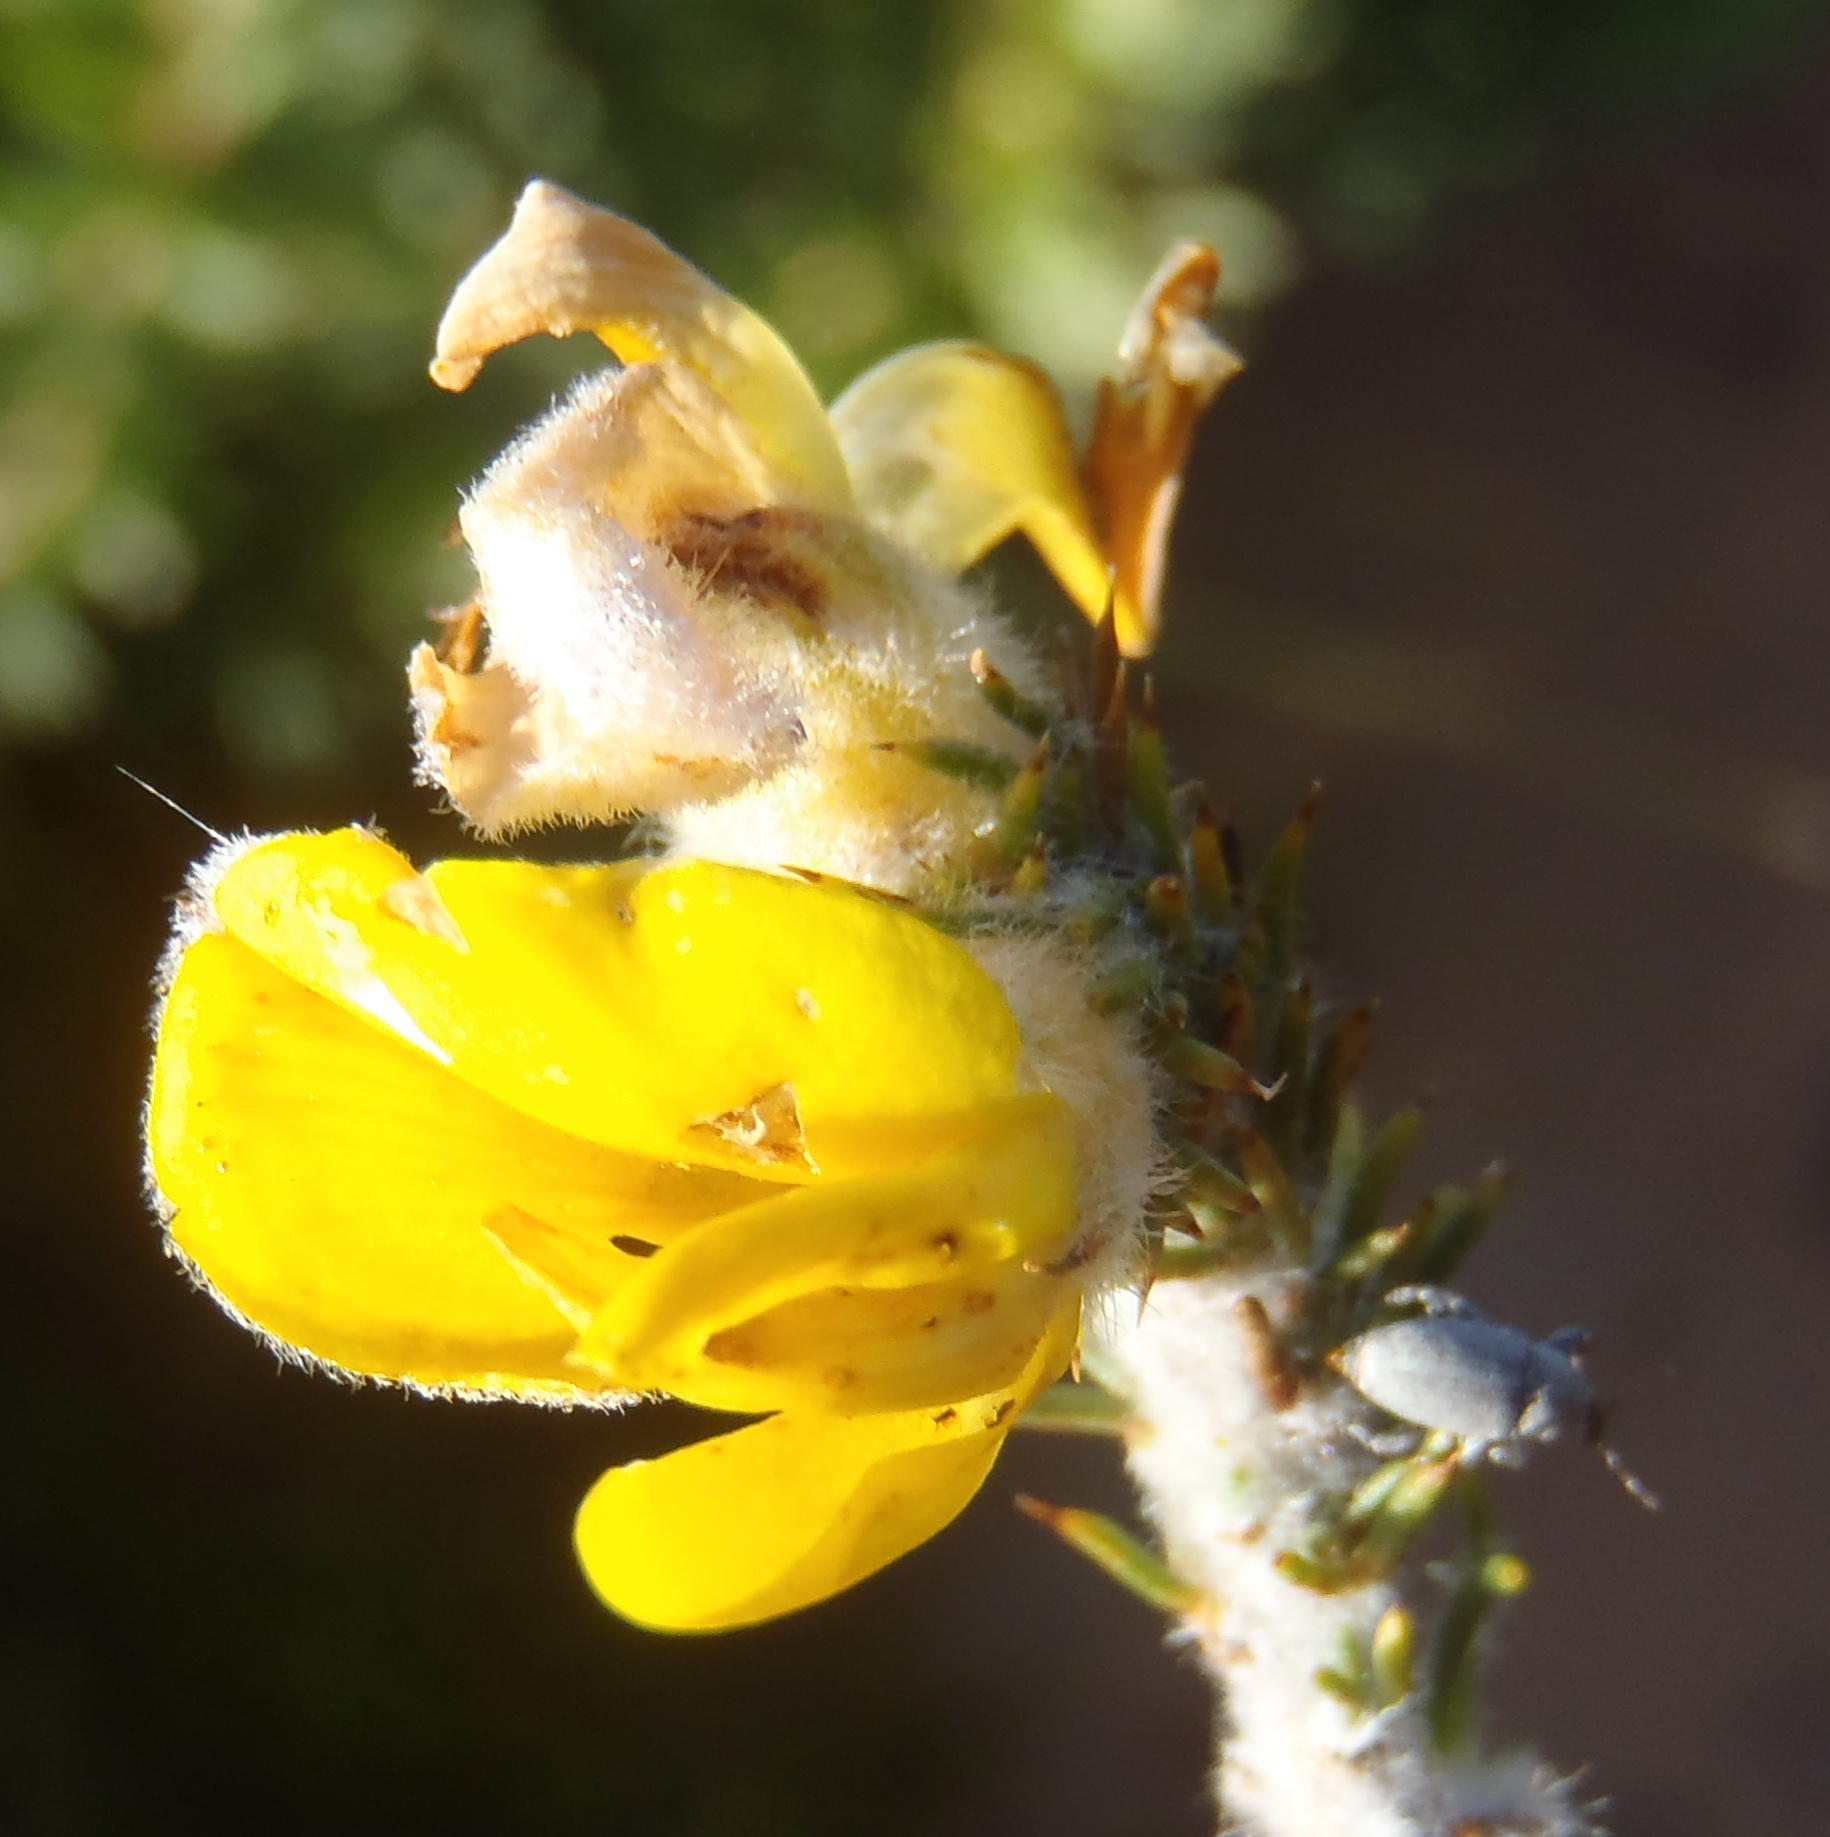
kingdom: Plantae
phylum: Tracheophyta
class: Magnoliopsida
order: Fabales
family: Fabaceae
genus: Aspalathus
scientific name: Aspalathus shawii
